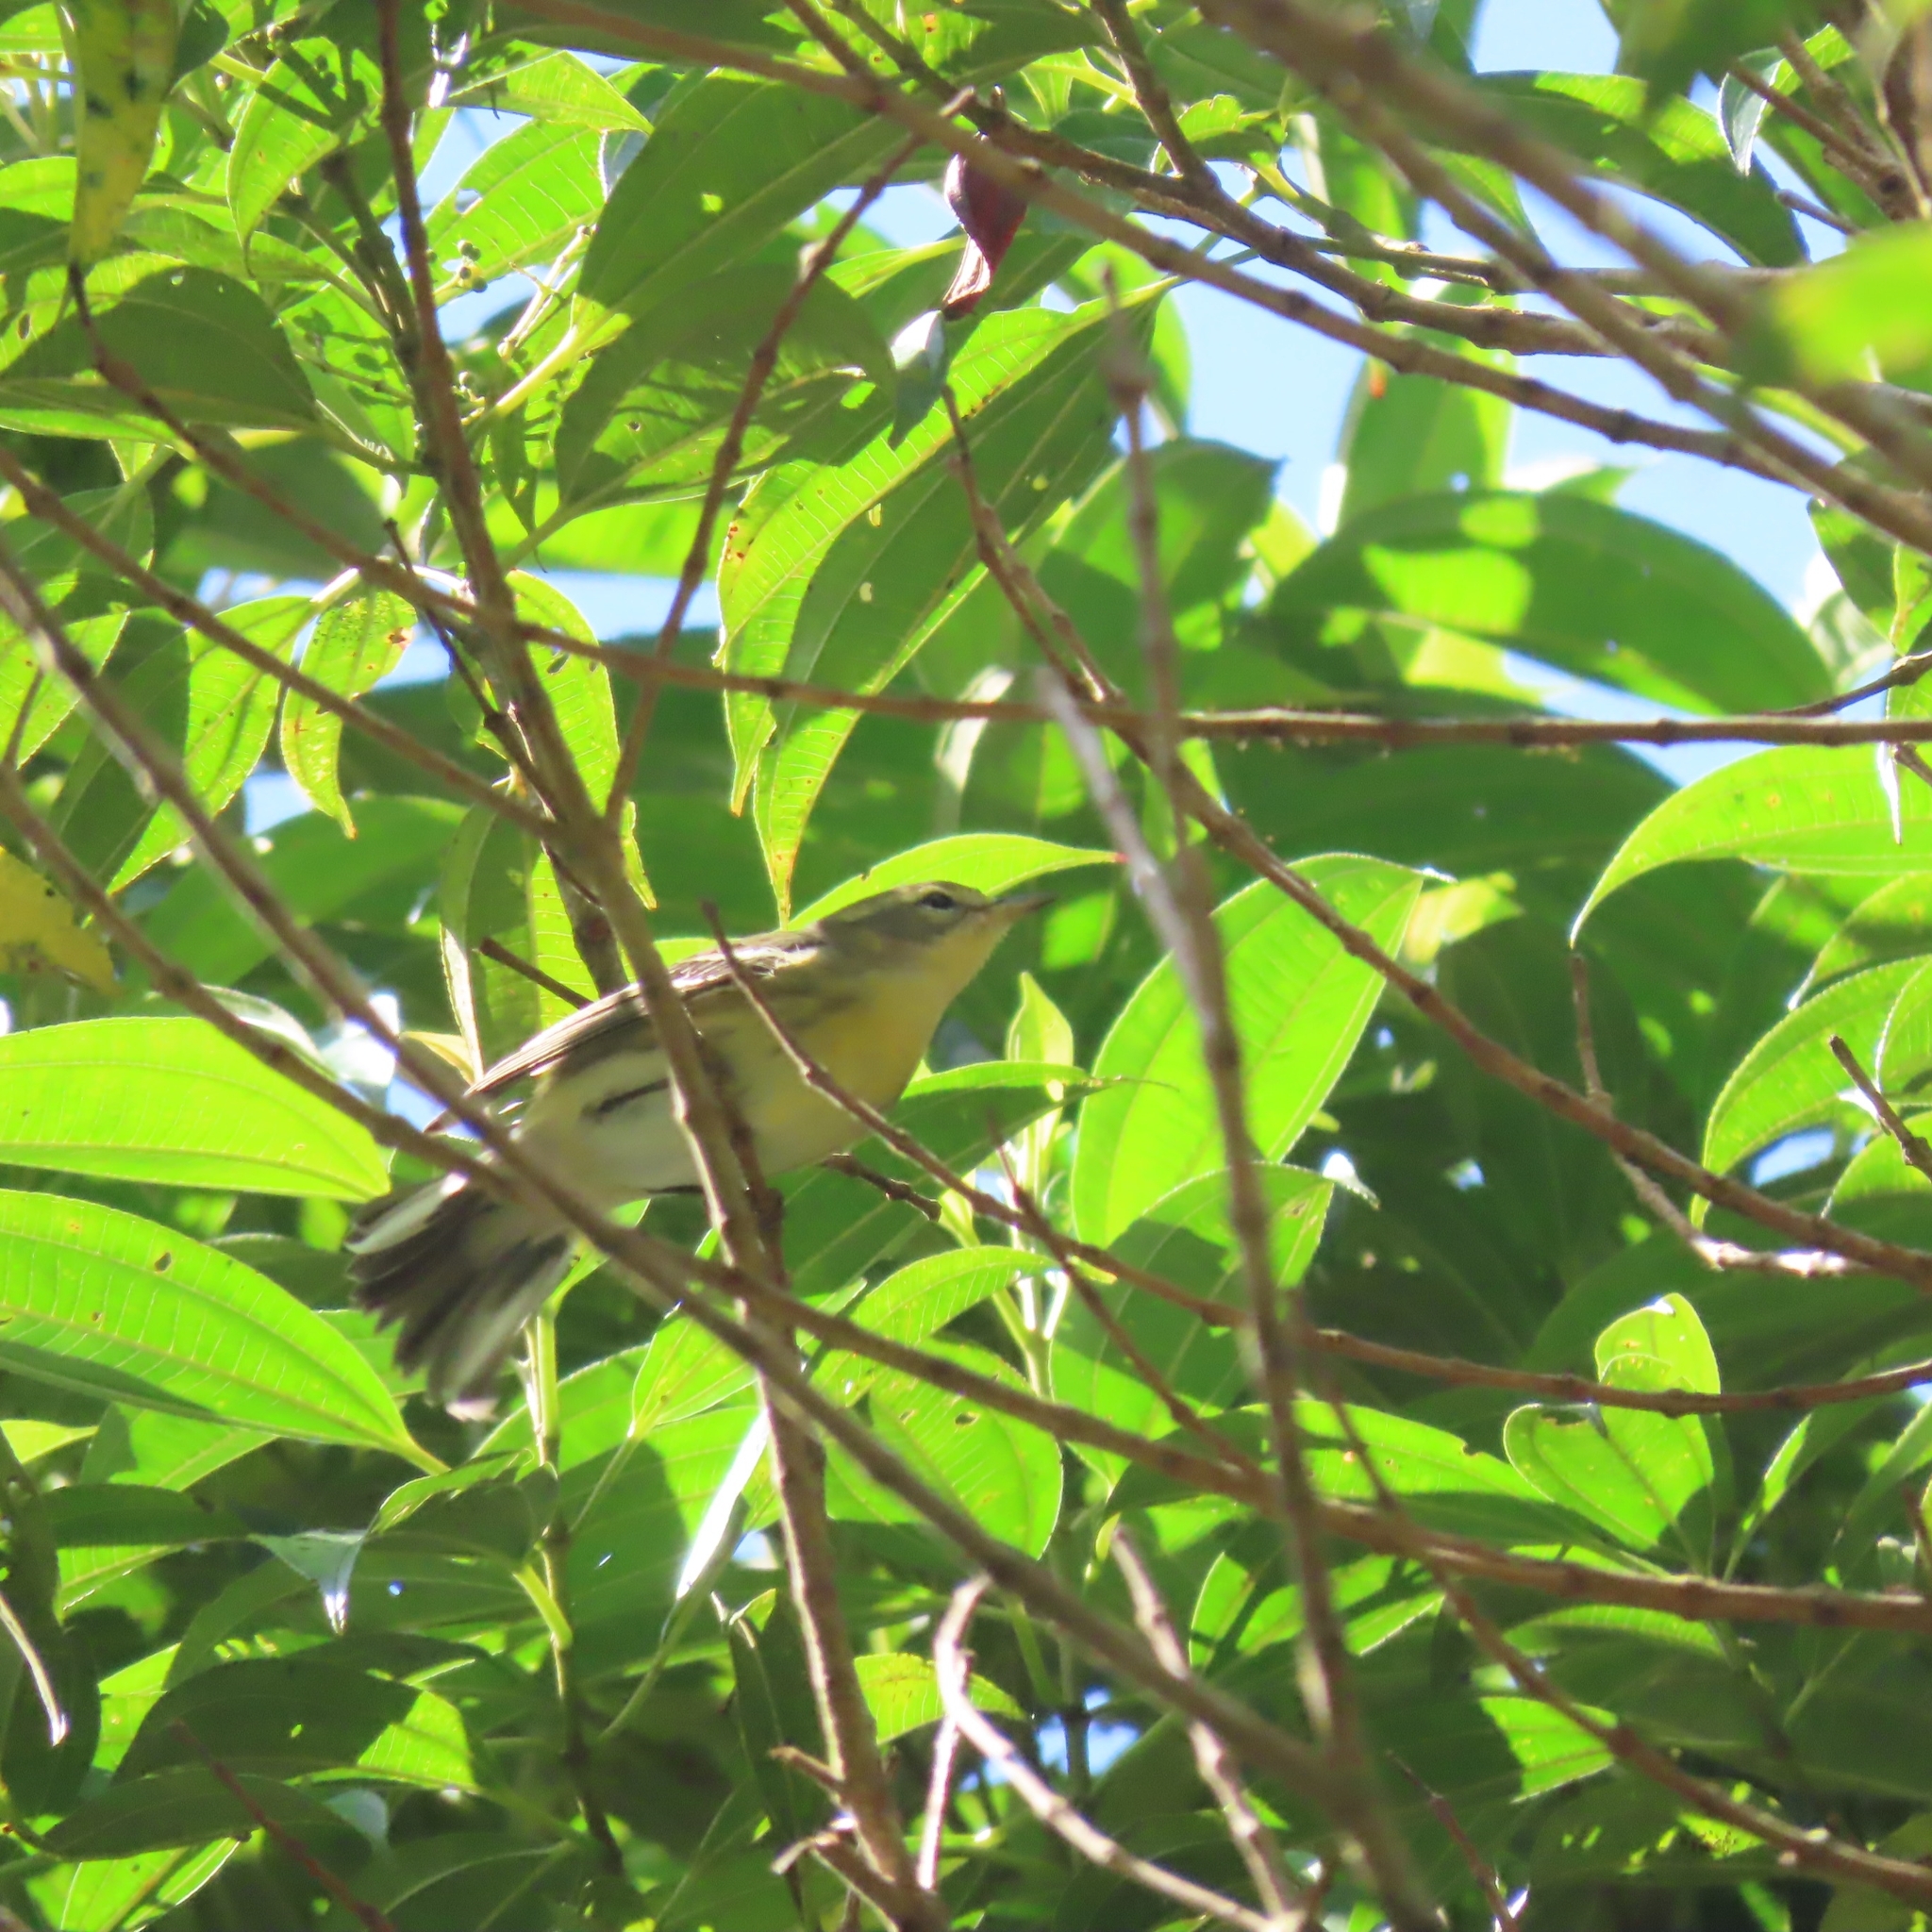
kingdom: Animalia
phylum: Chordata
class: Aves
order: Passeriformes
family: Parulidae
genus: Setophaga
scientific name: Setophaga fusca
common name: Blackburnian warbler
